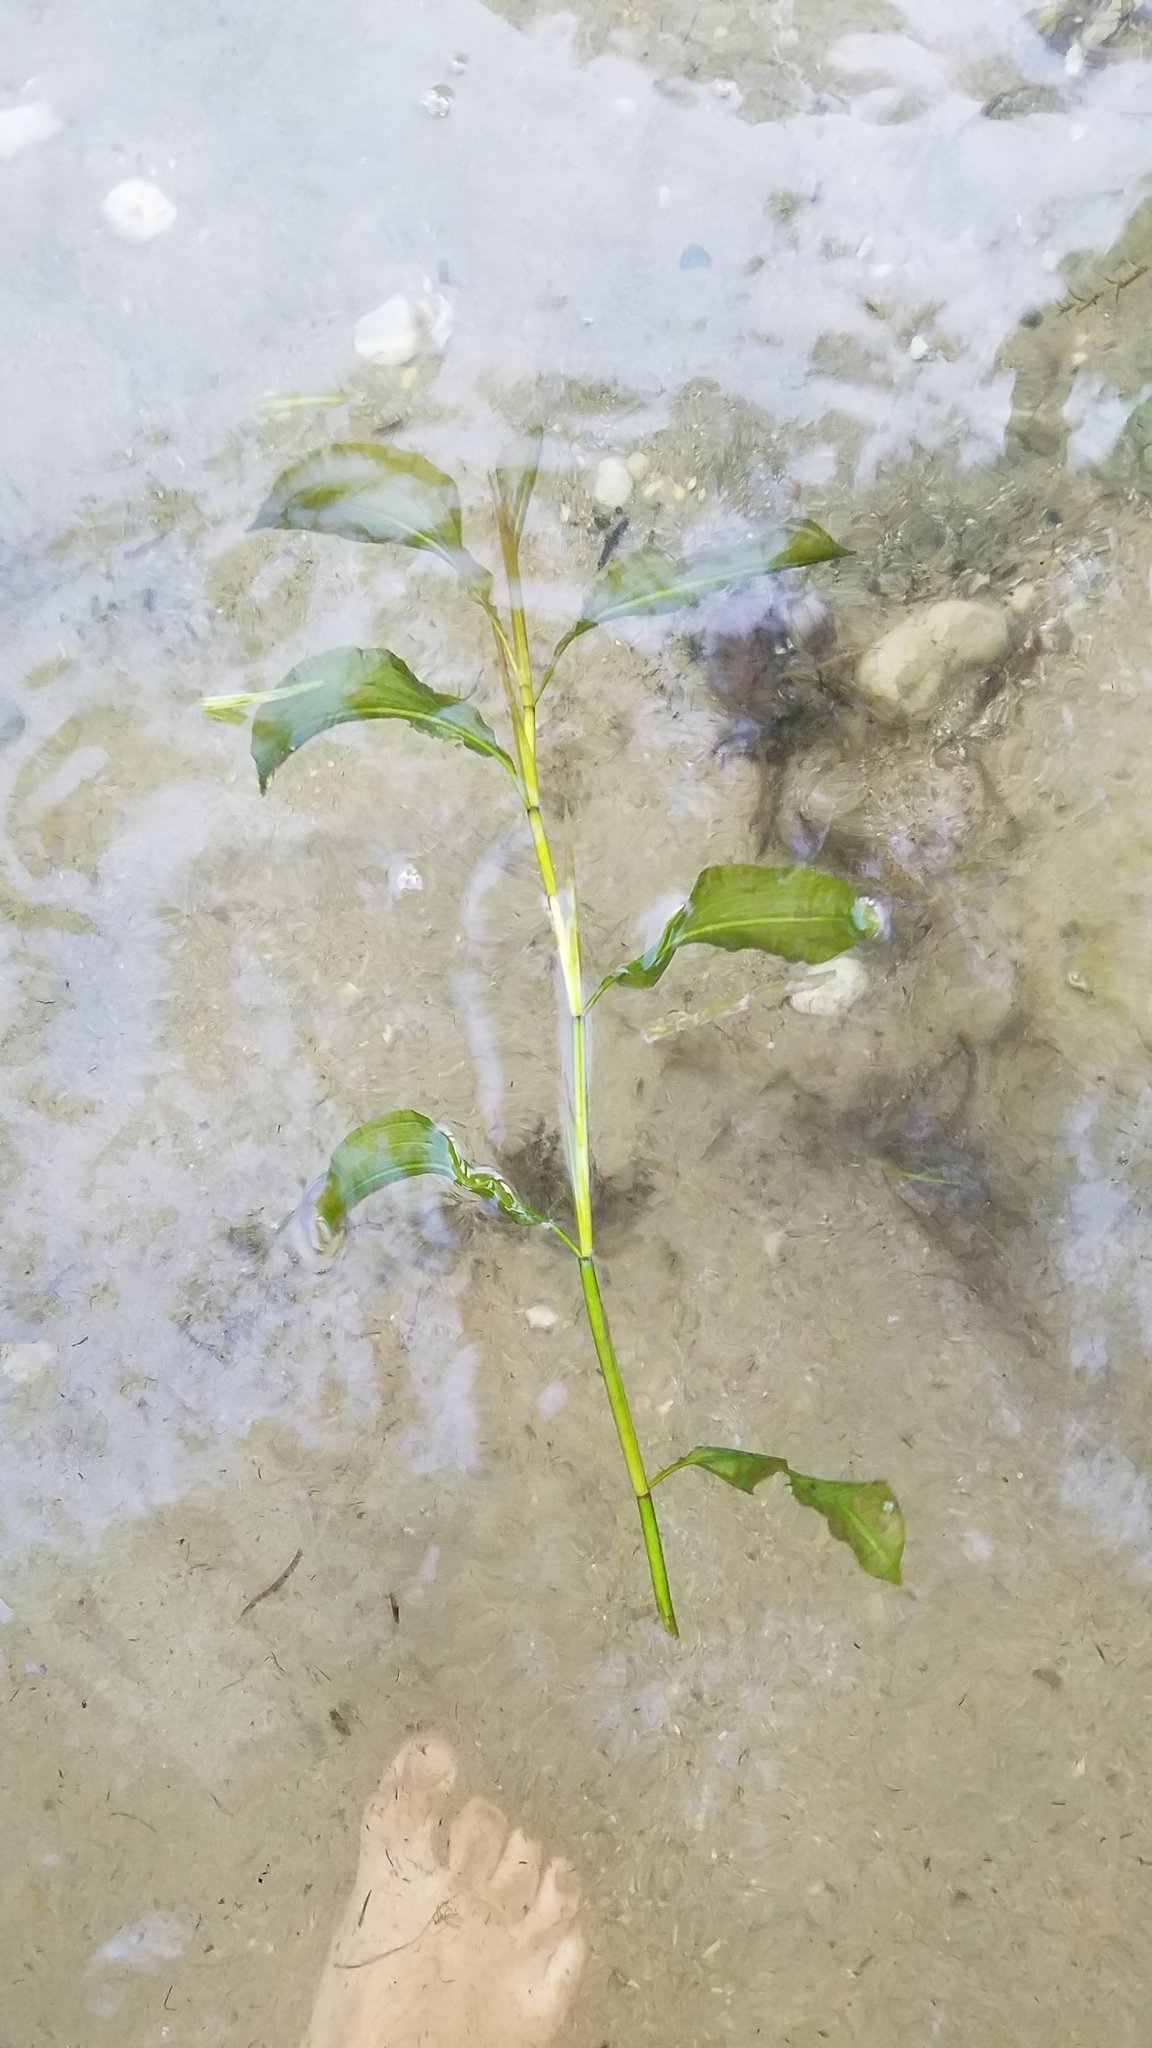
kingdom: Plantae
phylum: Tracheophyta
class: Liliopsida
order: Alismatales
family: Potamogetonaceae
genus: Potamogeton
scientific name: Potamogeton amplifolius
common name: Broad-leaved pondweed
